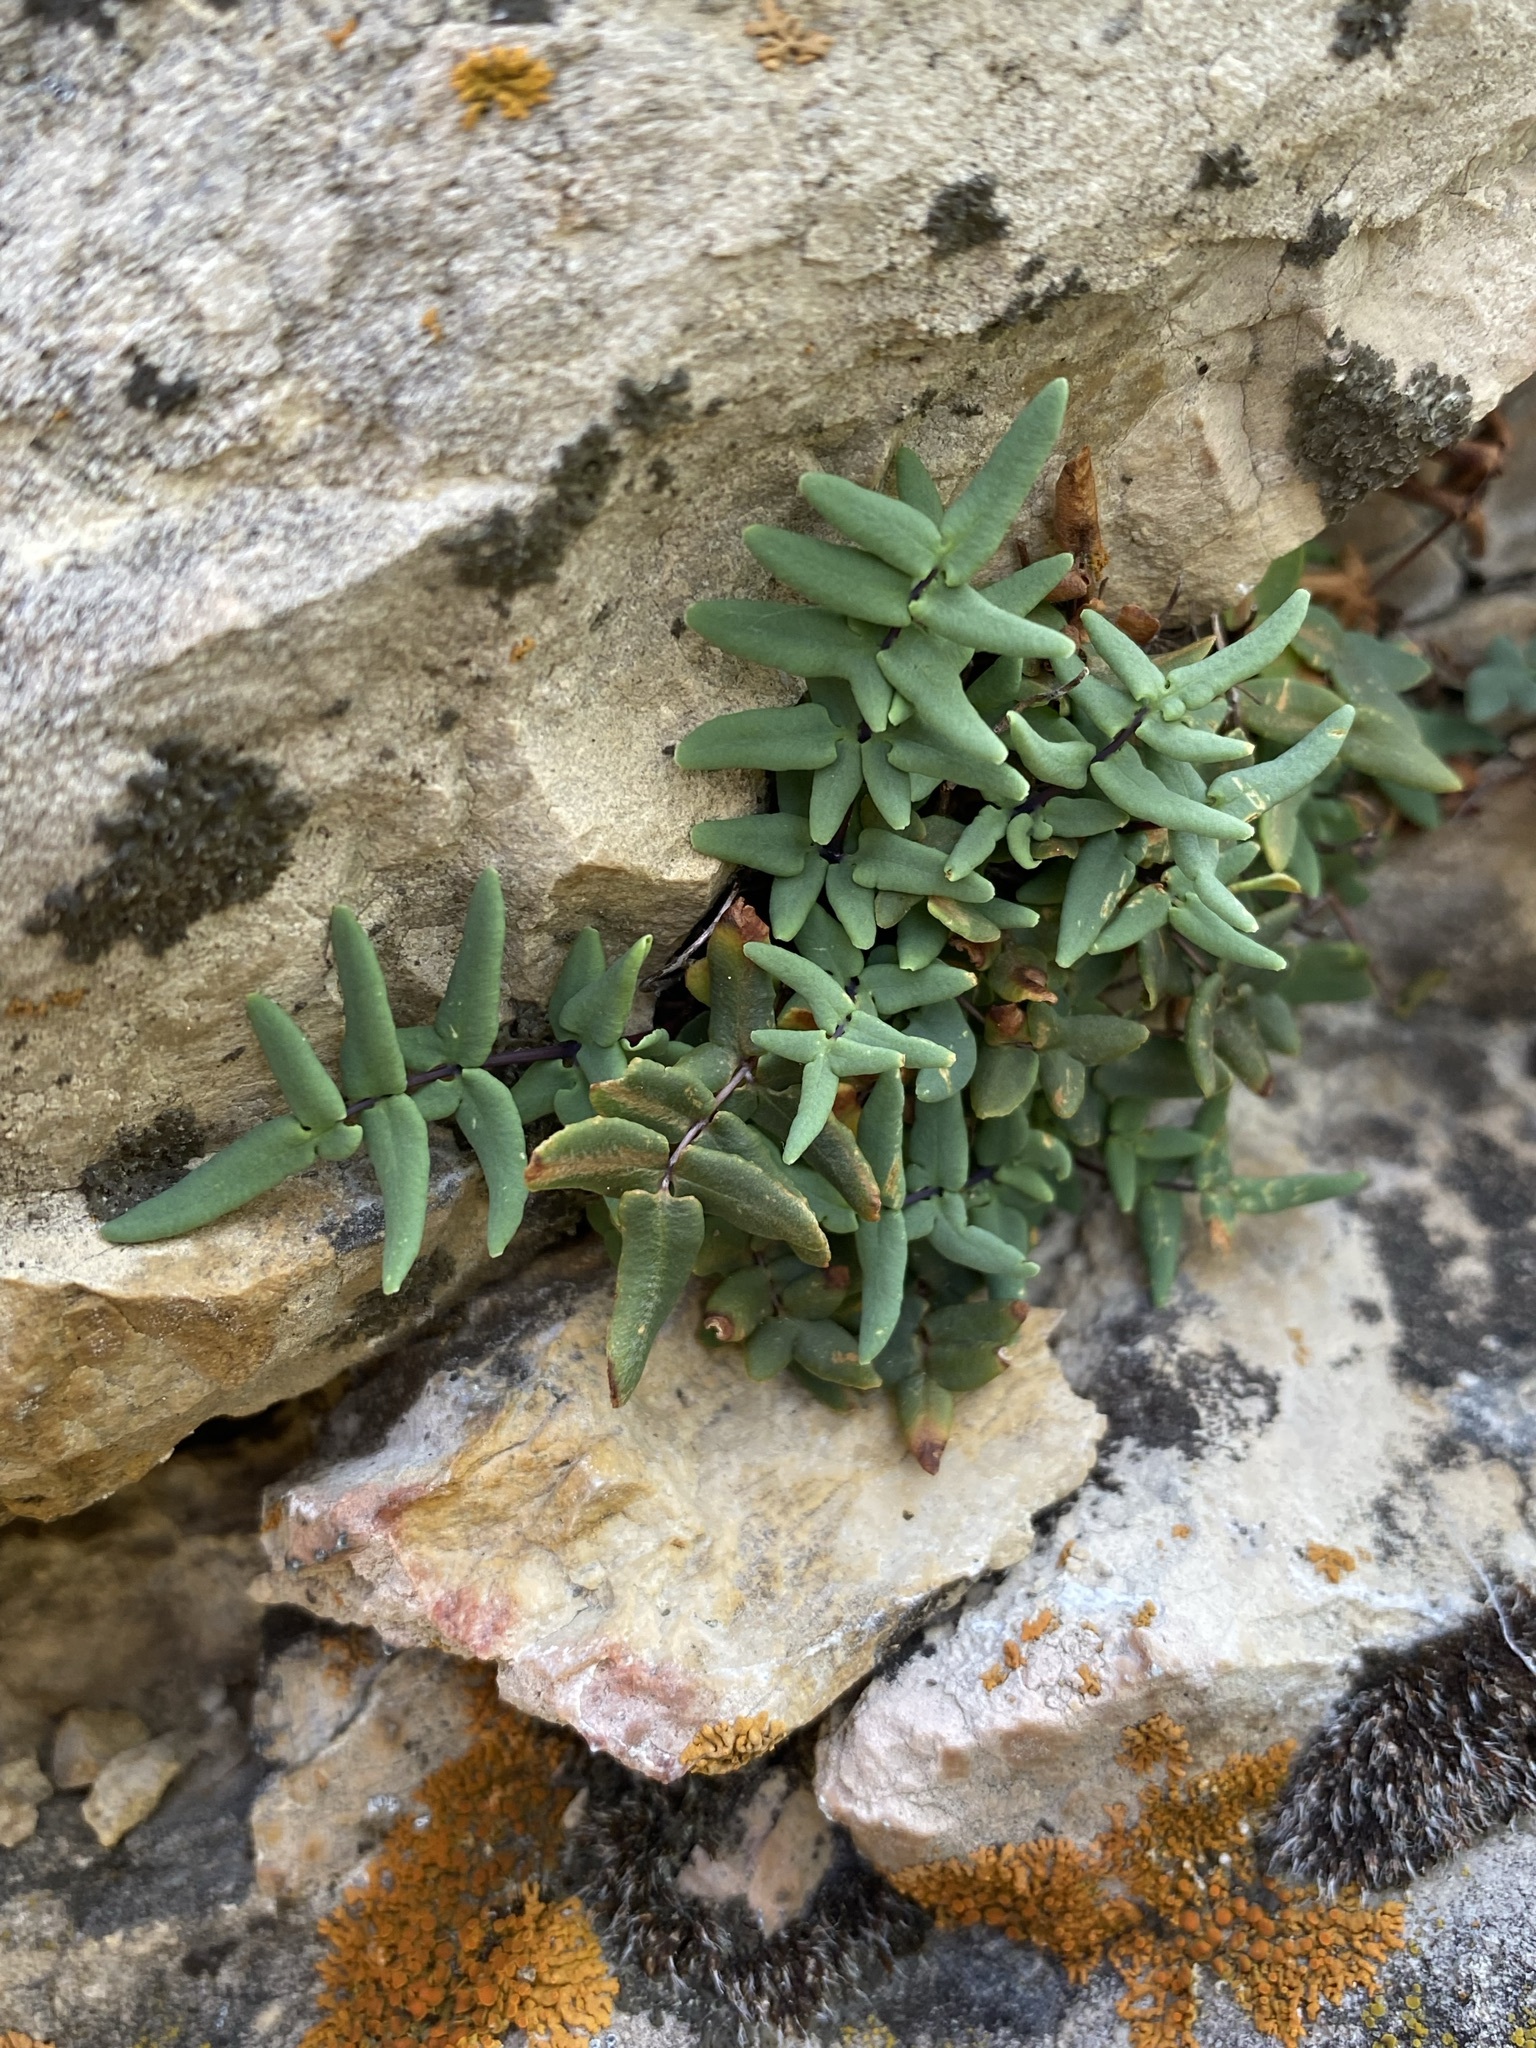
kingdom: Plantae
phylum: Tracheophyta
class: Polypodiopsida
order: Polypodiales
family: Pteridaceae
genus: Pellaea
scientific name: Pellaea glabella
